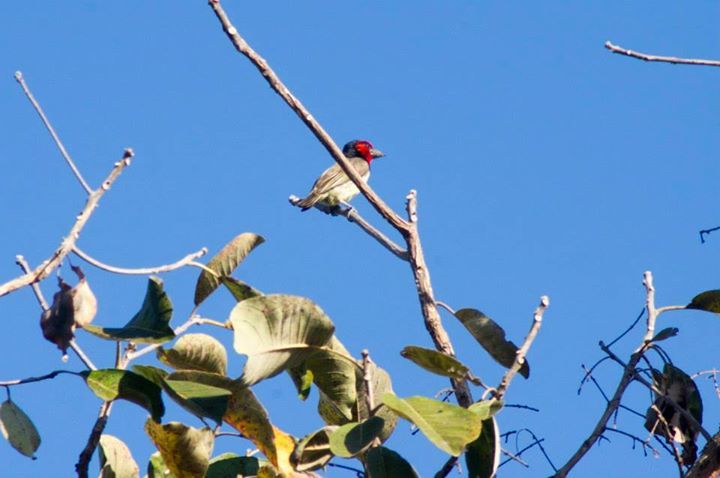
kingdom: Animalia
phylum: Chordata
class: Aves
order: Piciformes
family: Lybiidae
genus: Lybius
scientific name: Lybius torquatus
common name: Black-collared barbet
